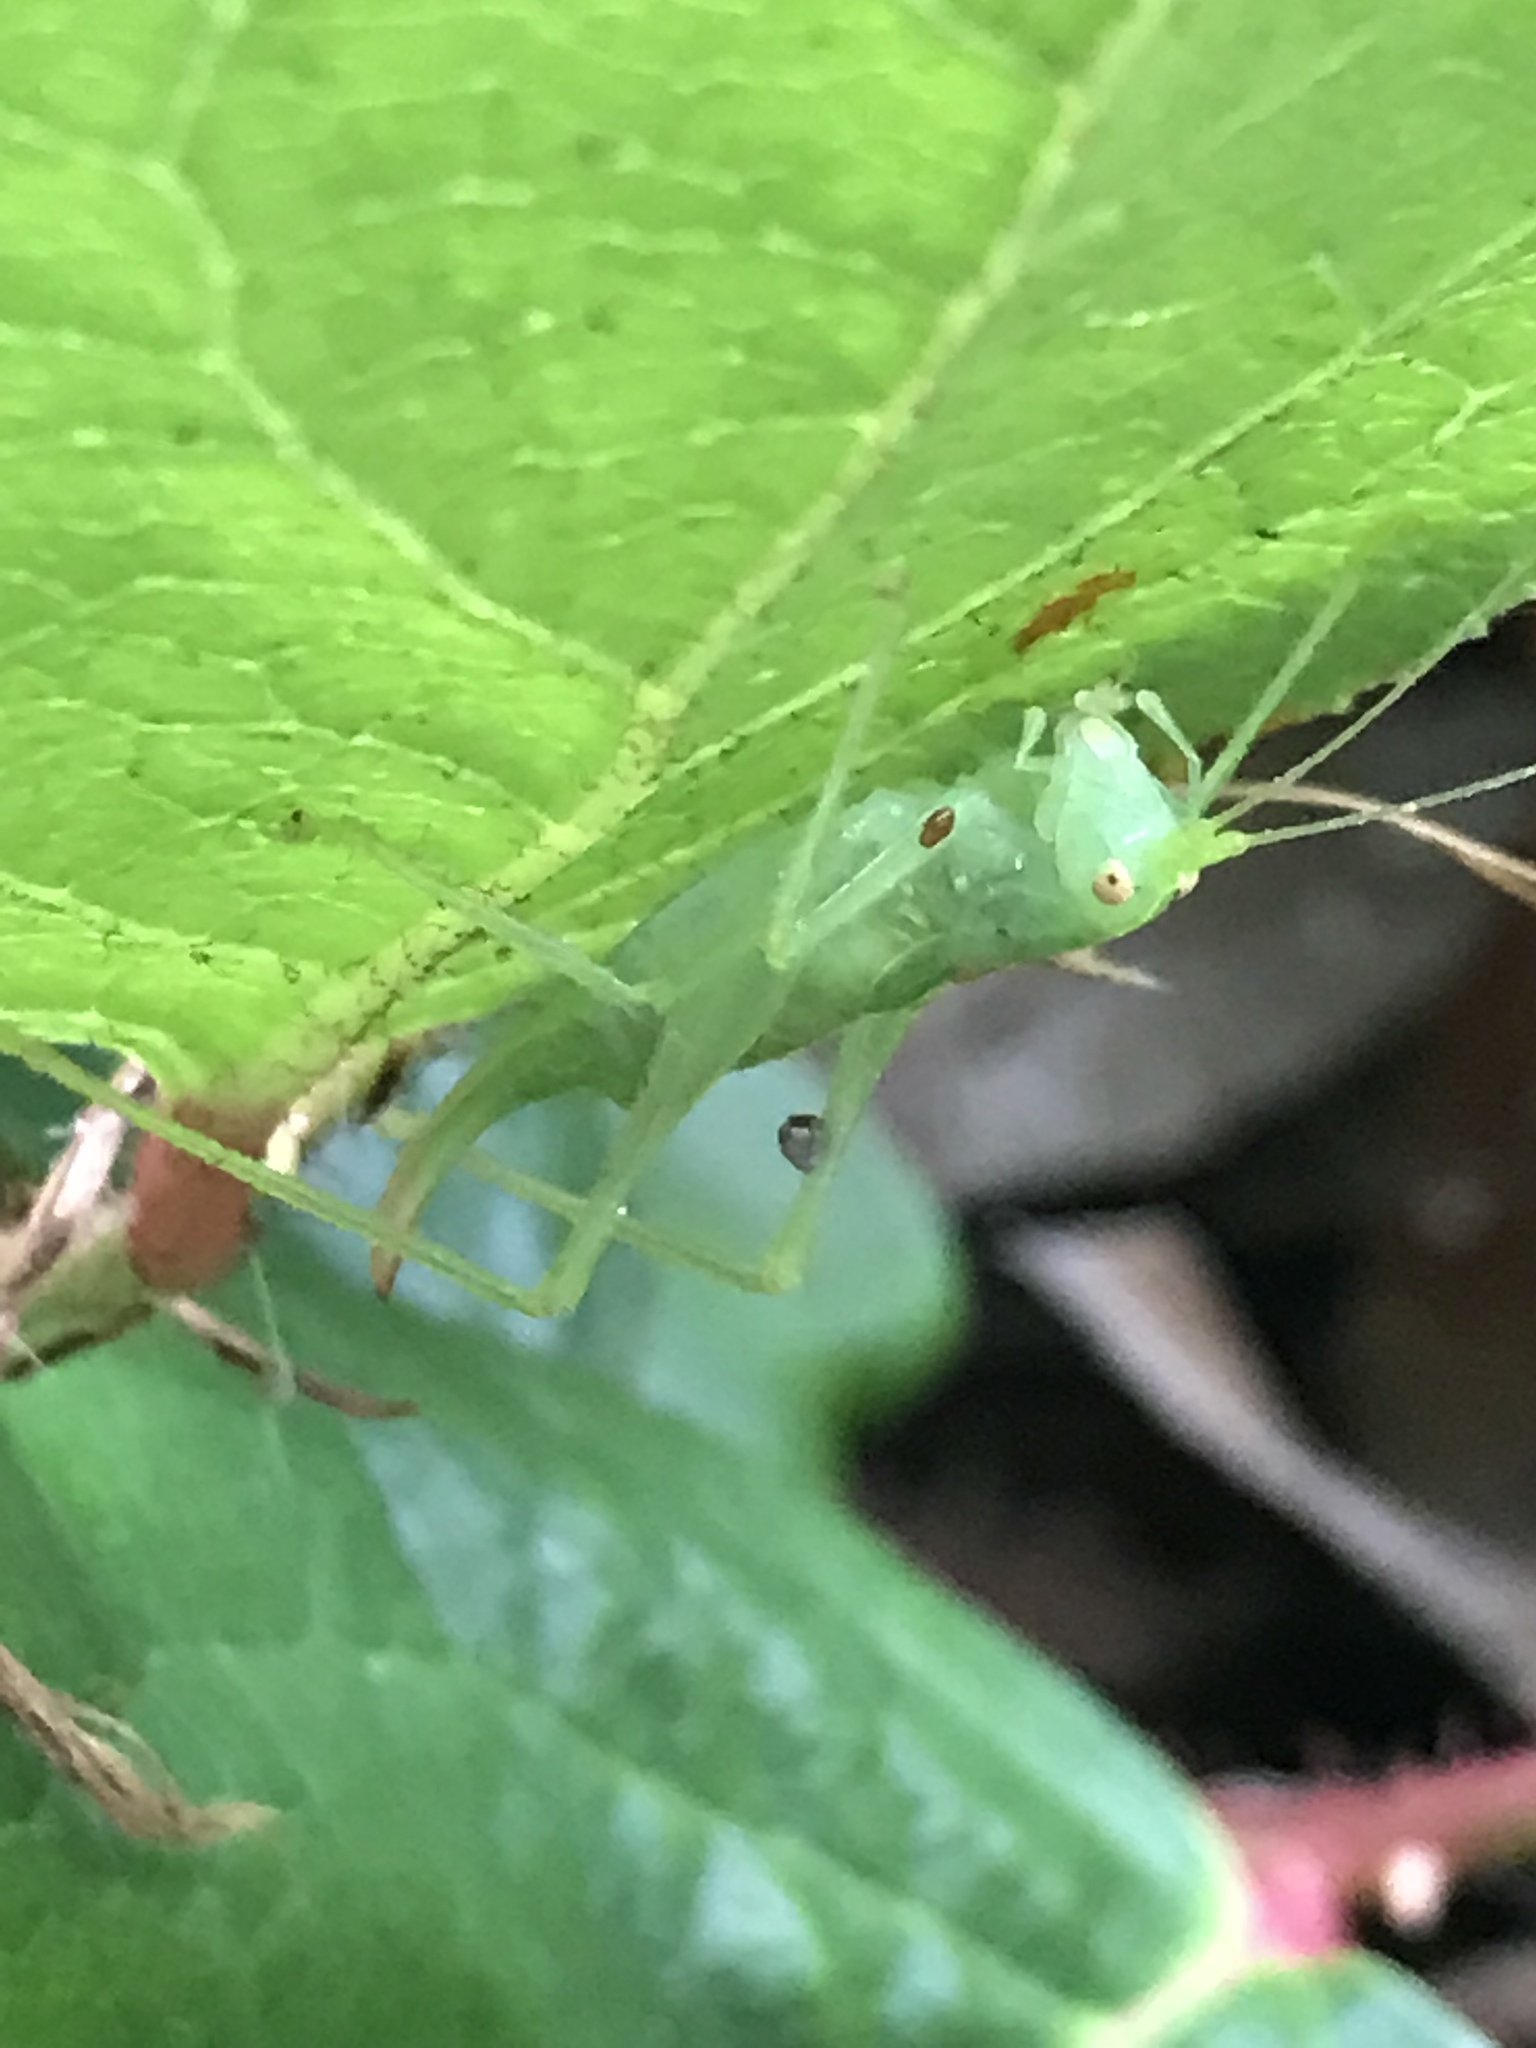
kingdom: Animalia
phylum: Arthropoda
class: Insecta
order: Orthoptera
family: Tettigoniidae
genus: Meconema
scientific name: Meconema meridionale
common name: Southern oak bush-cricket
